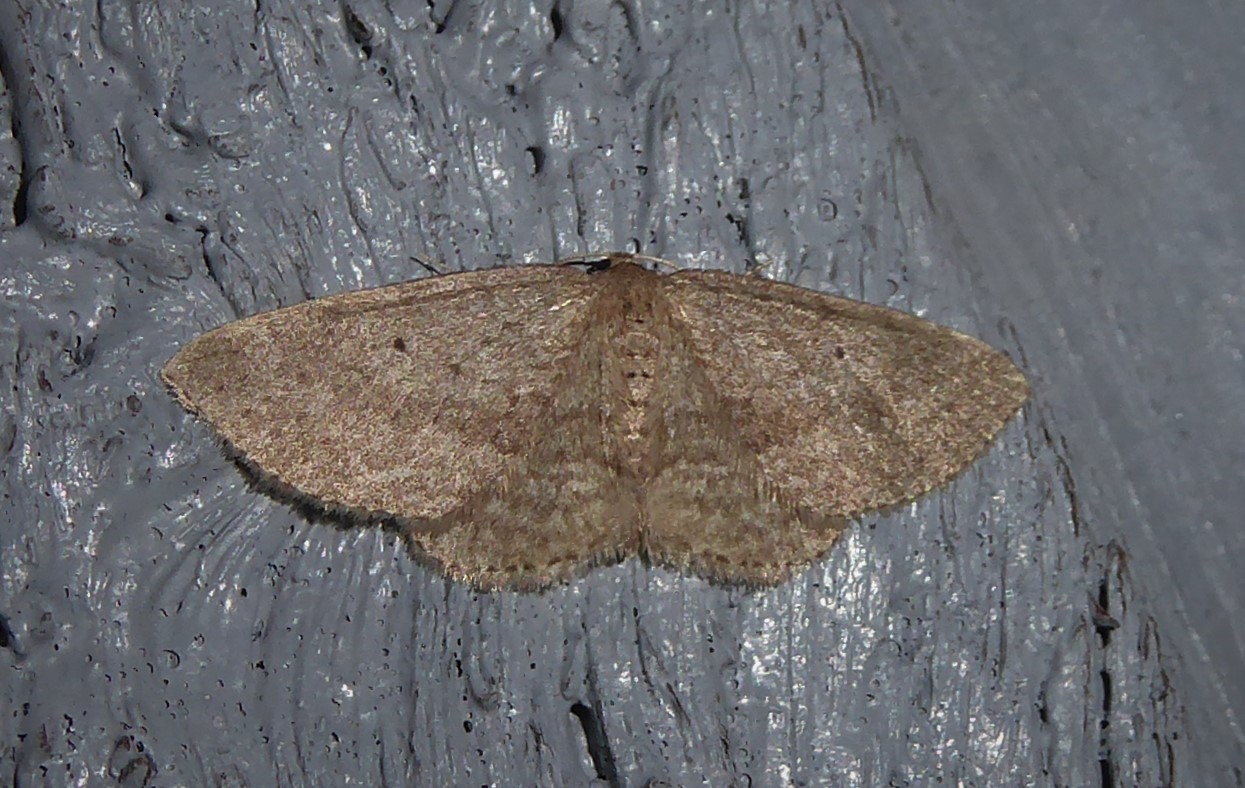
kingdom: Animalia
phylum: Arthropoda
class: Insecta
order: Lepidoptera
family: Geometridae
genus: Poecilasthena
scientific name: Poecilasthena schistaria
